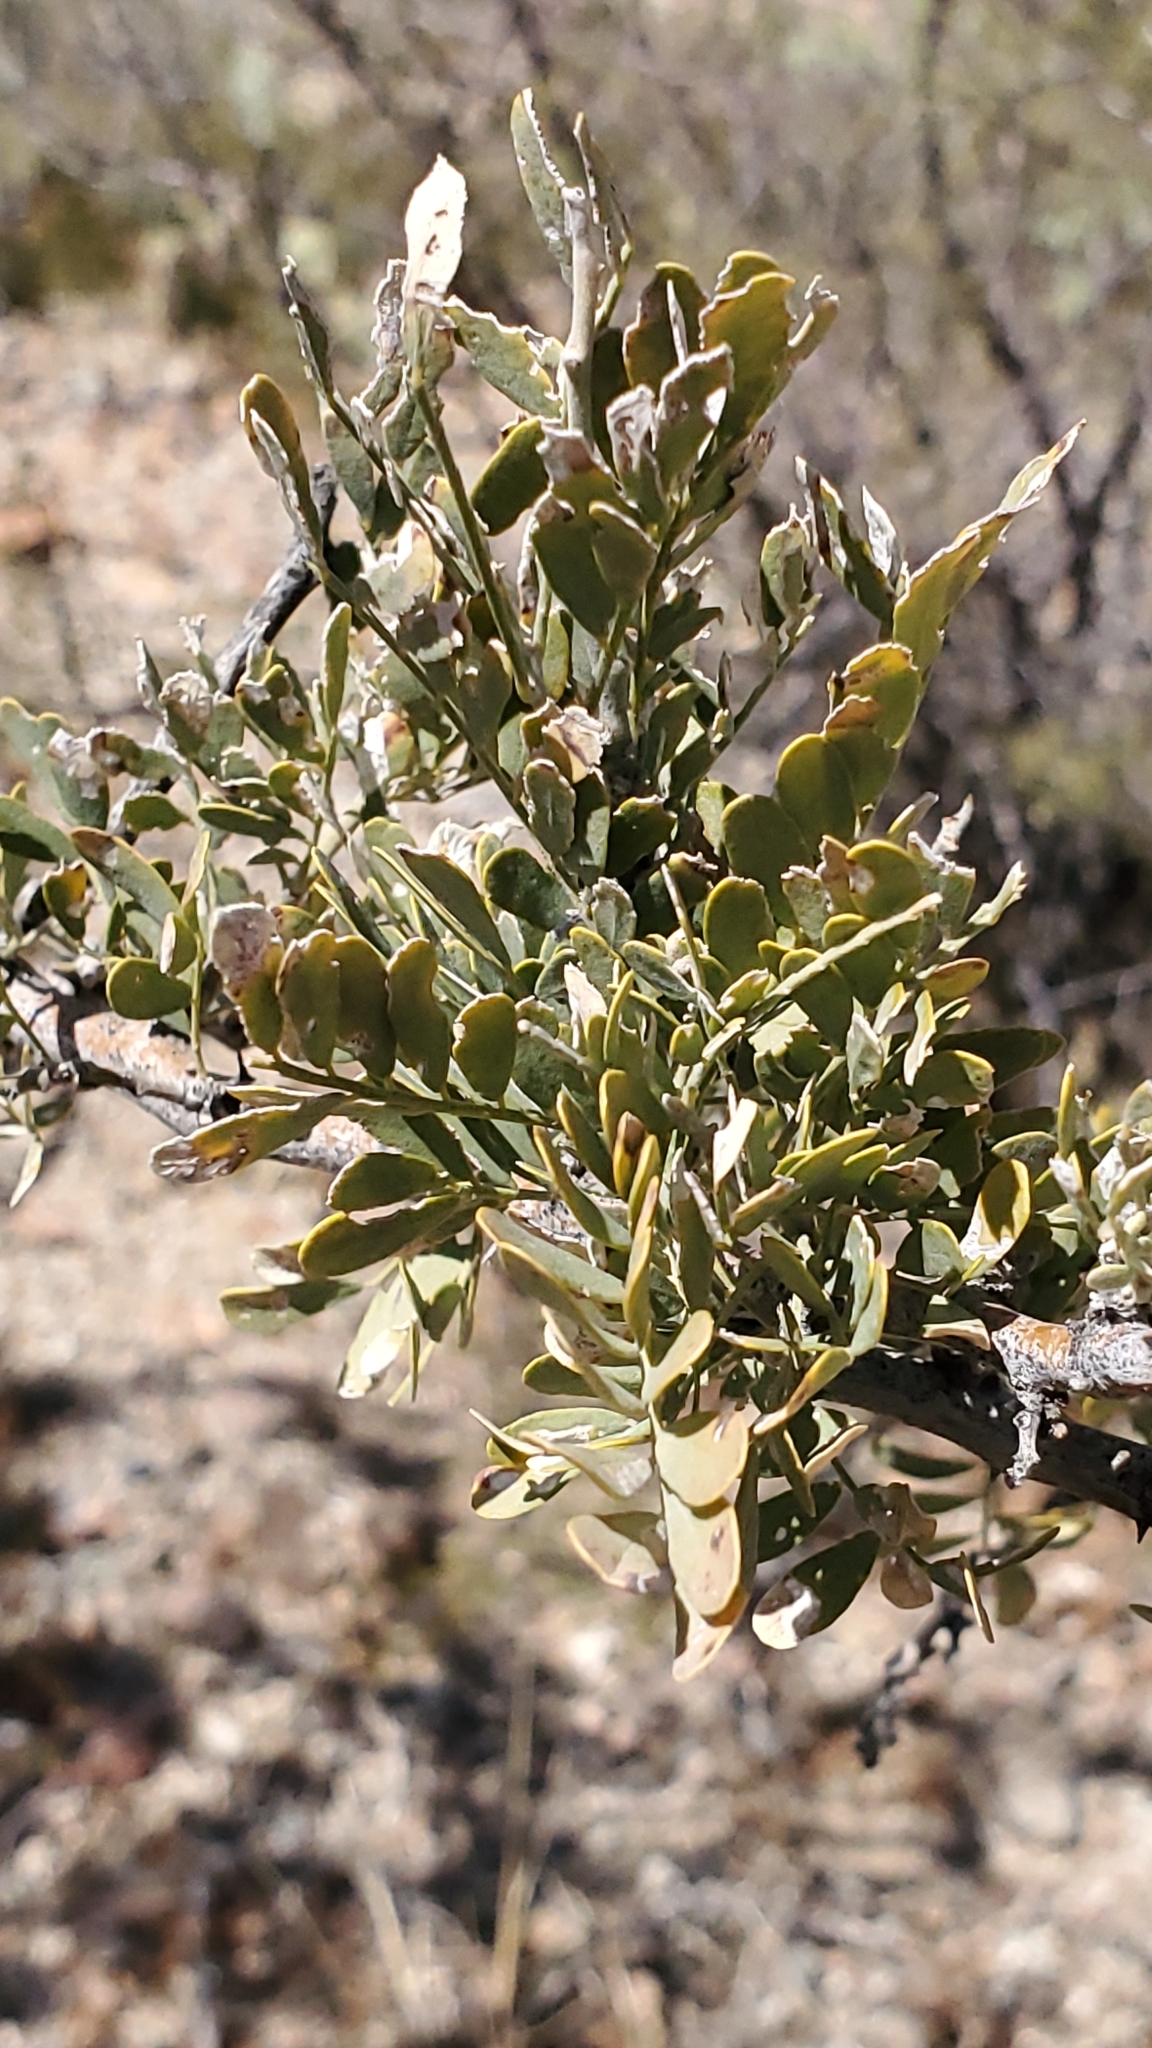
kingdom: Plantae
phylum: Tracheophyta
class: Magnoliopsida
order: Fabales
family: Fabaceae
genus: Olneya
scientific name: Olneya tesota
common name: Desert ironwood
